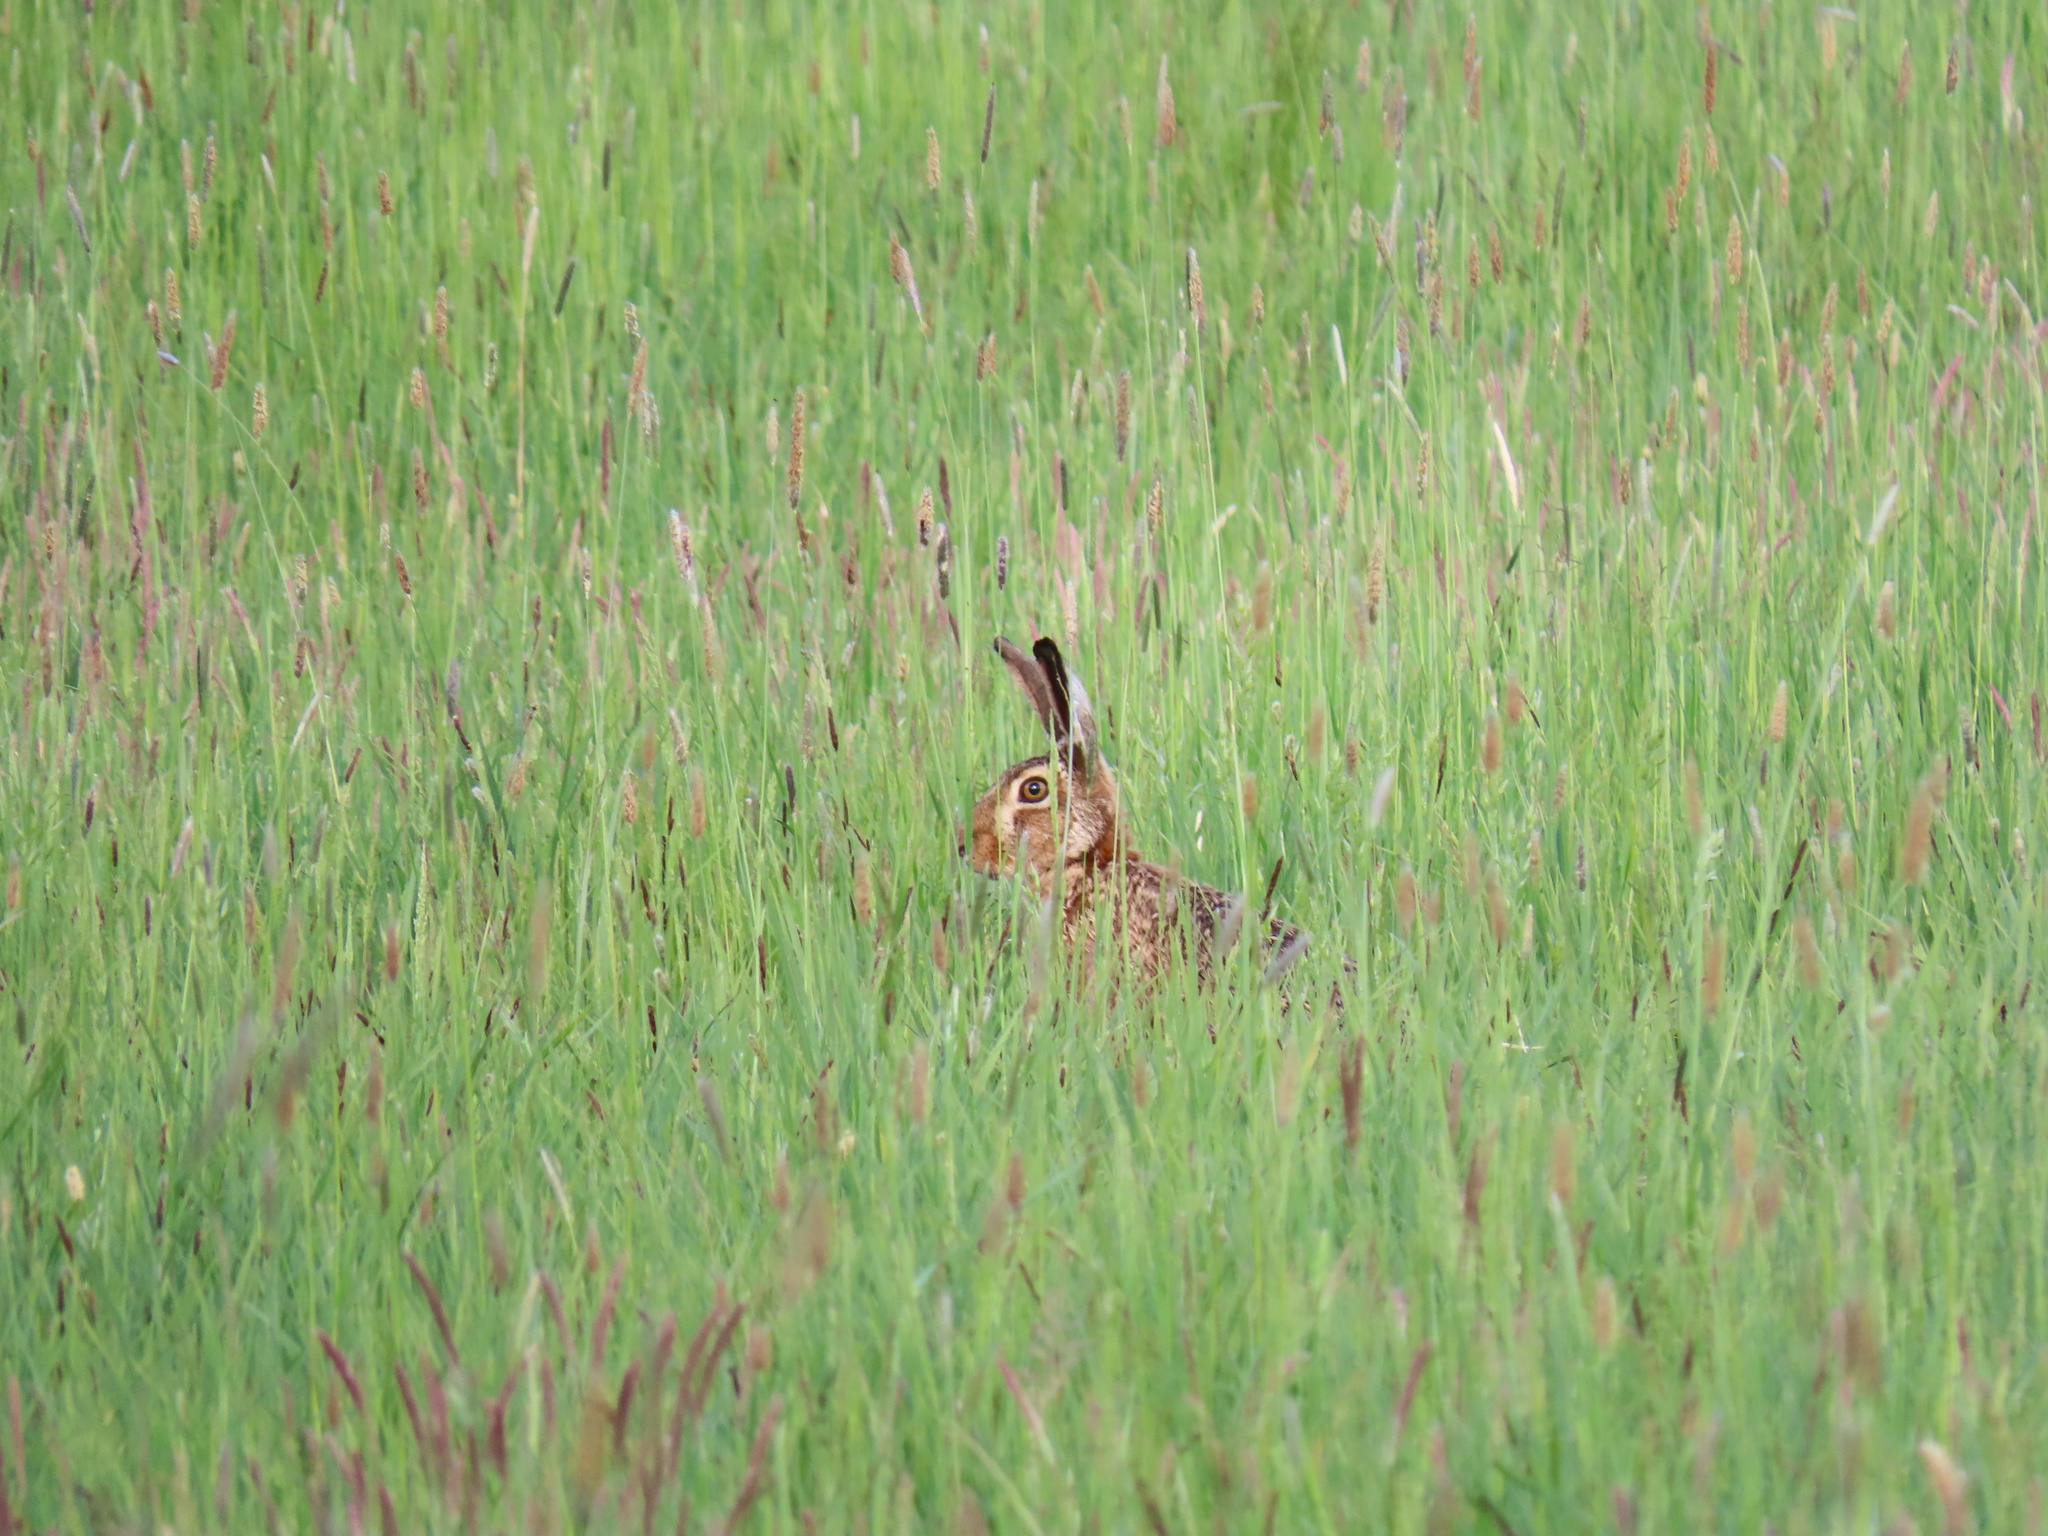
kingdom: Animalia
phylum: Chordata
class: Mammalia
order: Lagomorpha
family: Leporidae
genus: Lepus
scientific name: Lepus europaeus
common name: European hare
